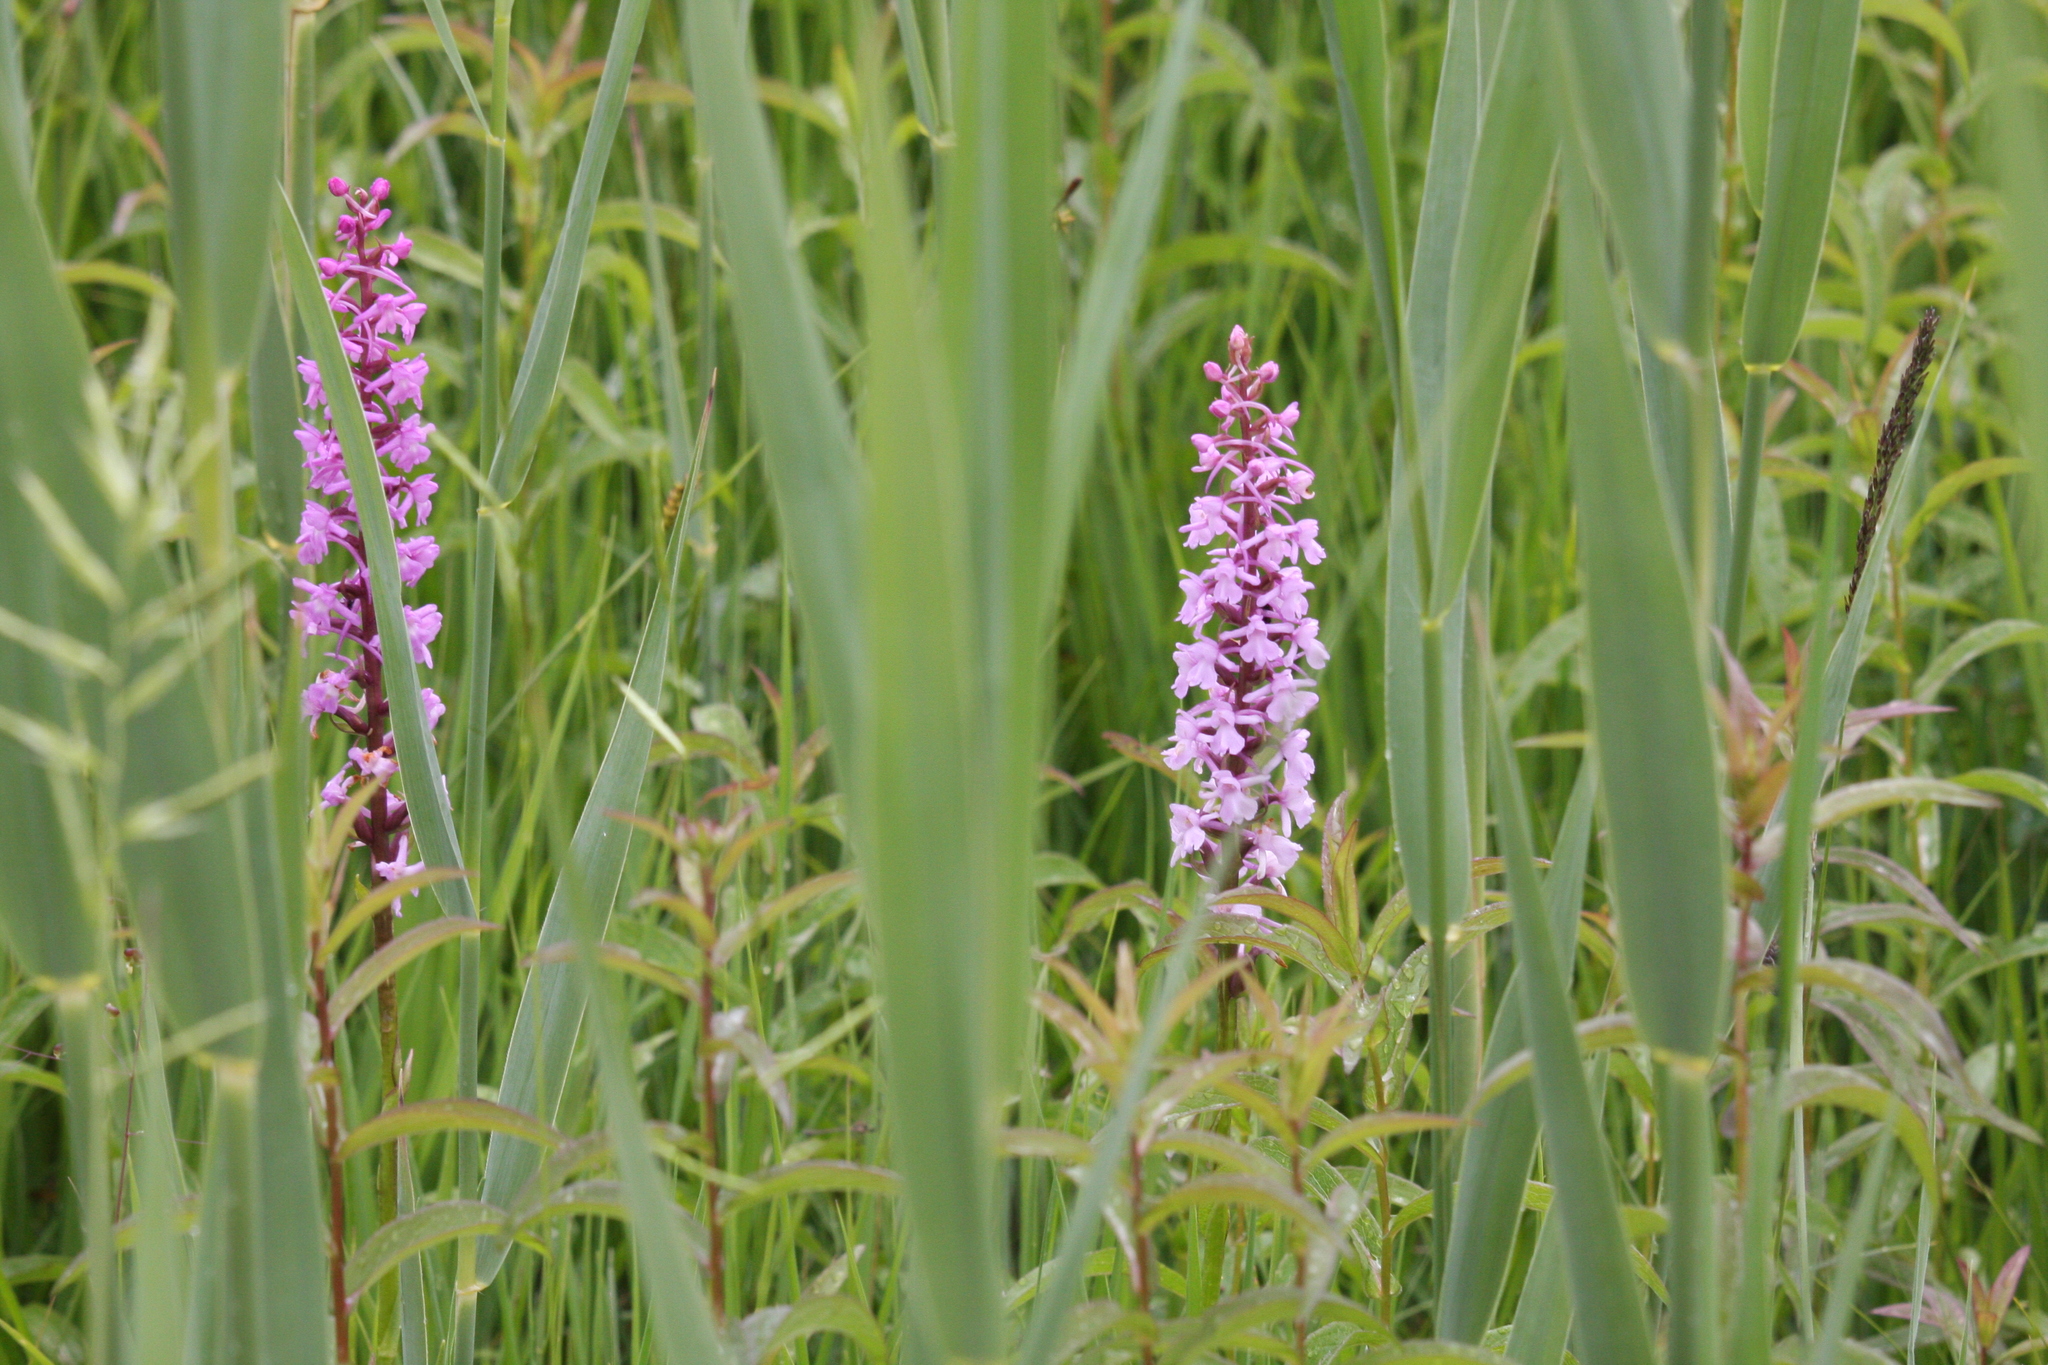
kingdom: Plantae
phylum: Tracheophyta
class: Liliopsida
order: Asparagales
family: Orchidaceae
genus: Gymnadenia
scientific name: Gymnadenia conopsea
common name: Fragrant orchid
